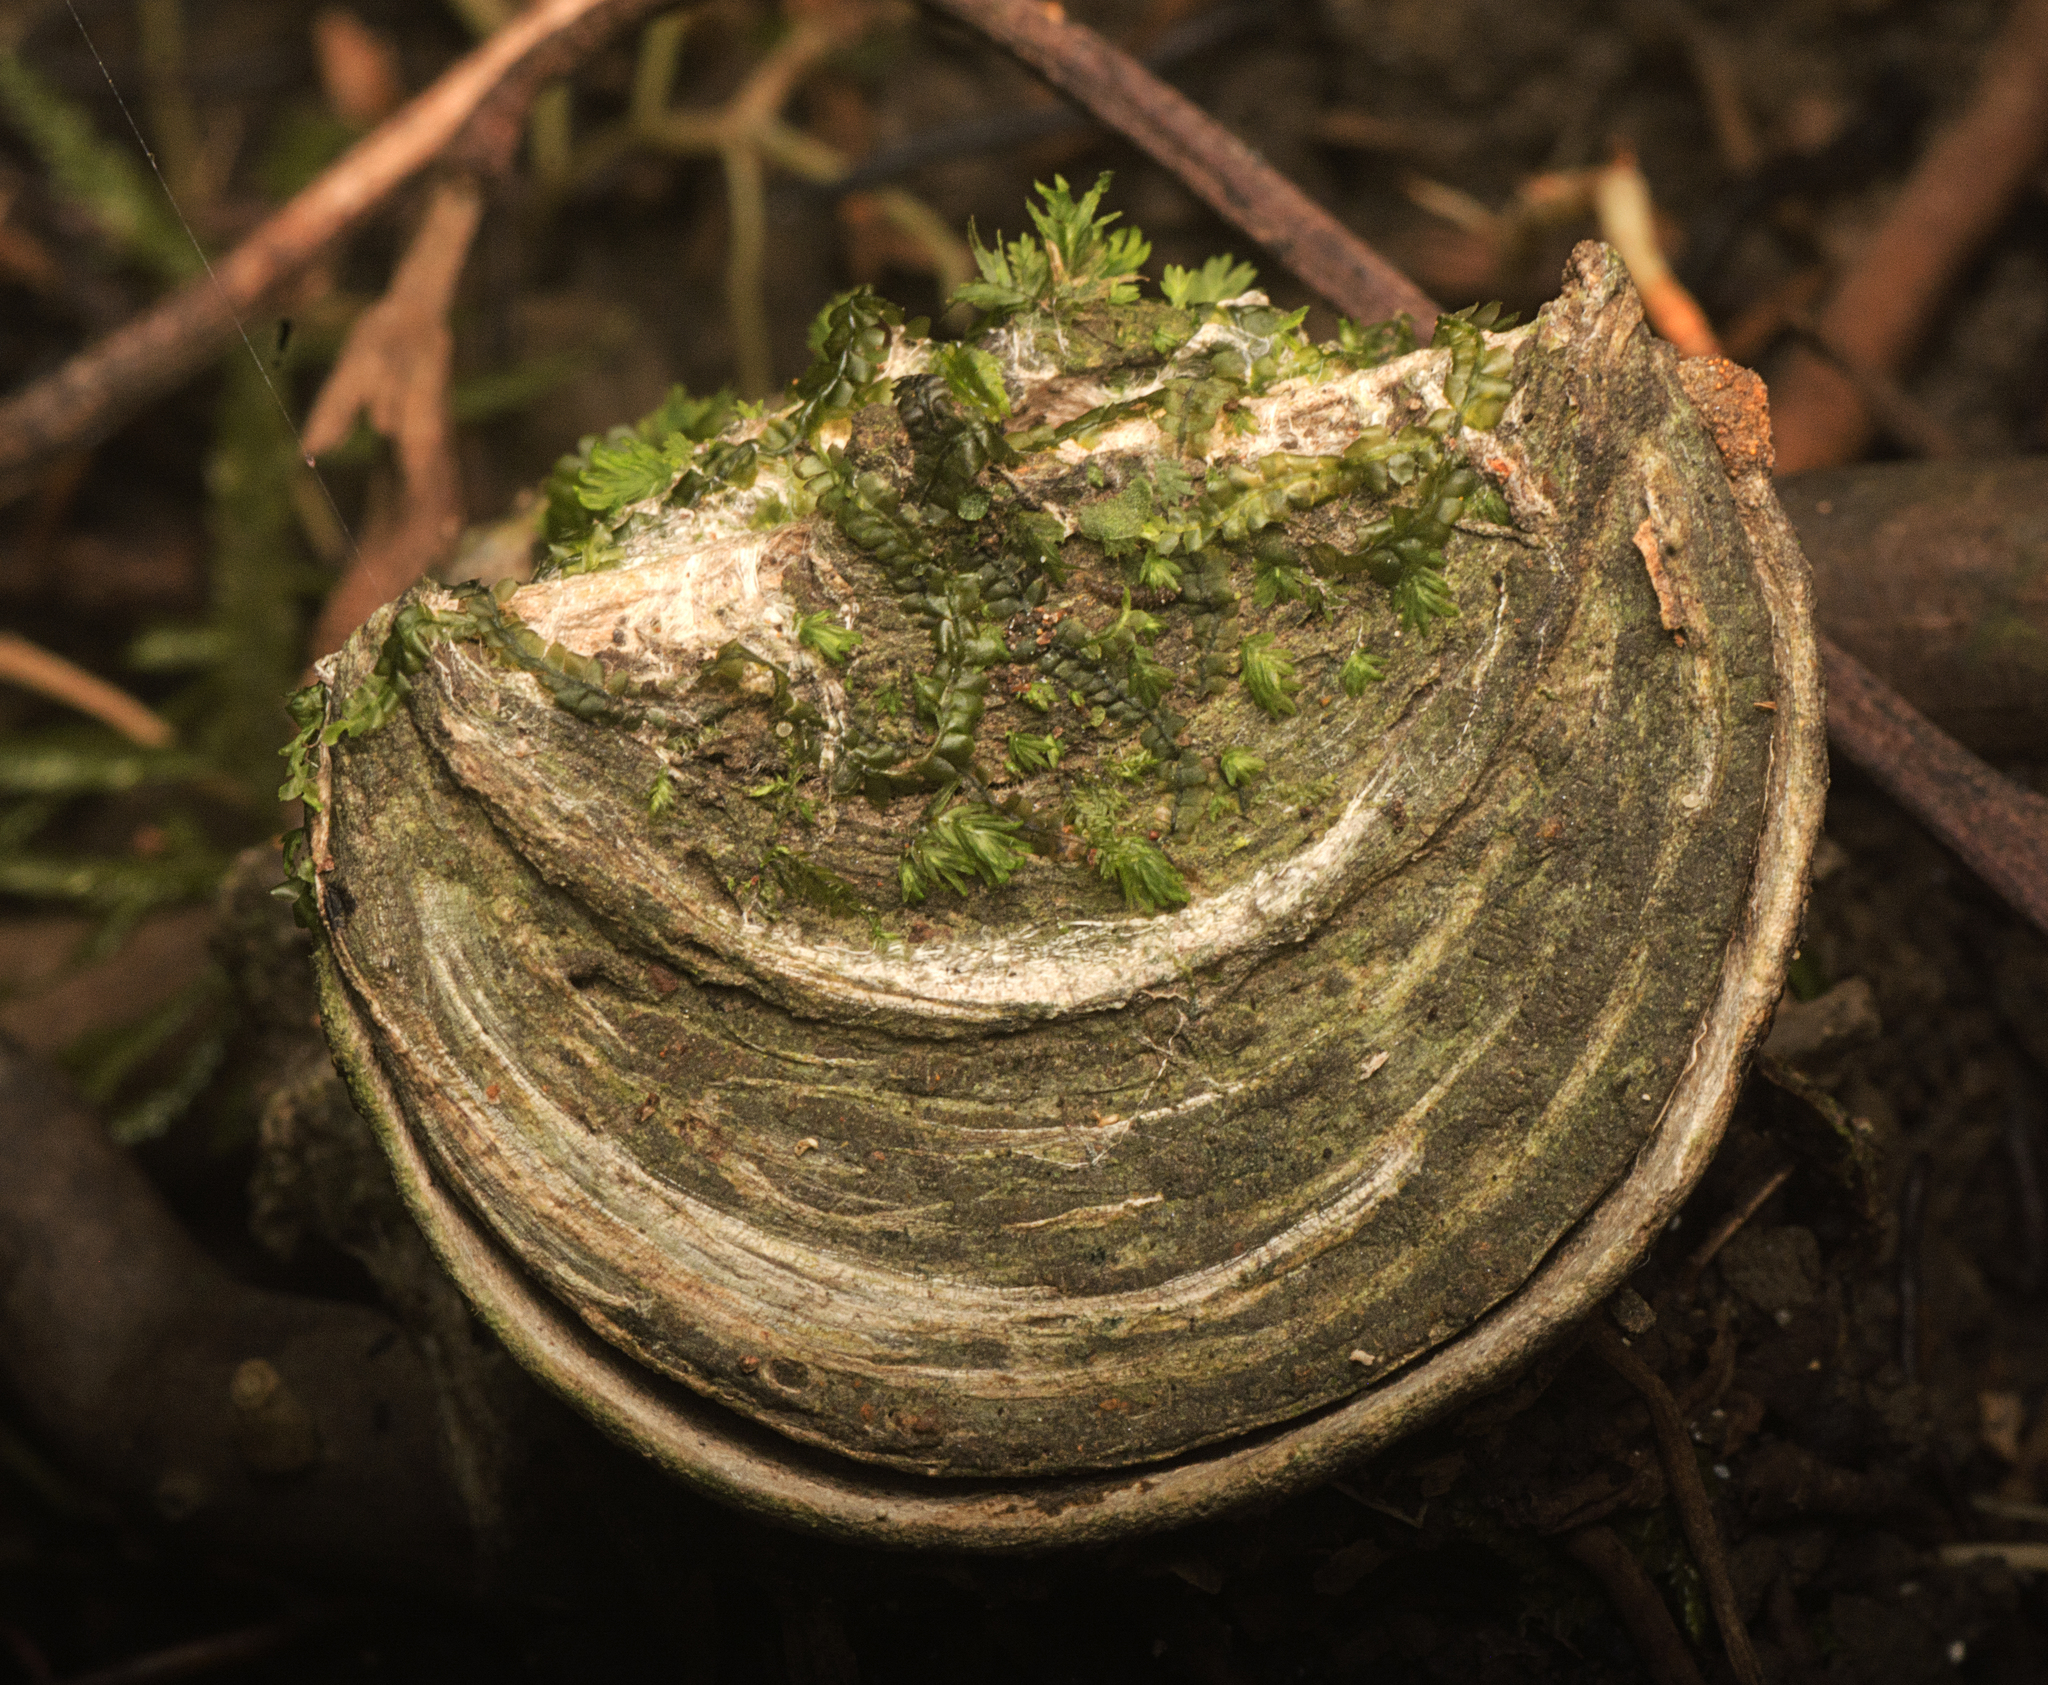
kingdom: Animalia
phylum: Arthropoda
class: Arachnida
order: Araneae
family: Idiopidae
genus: Euoplos
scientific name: Euoplos turrificus
